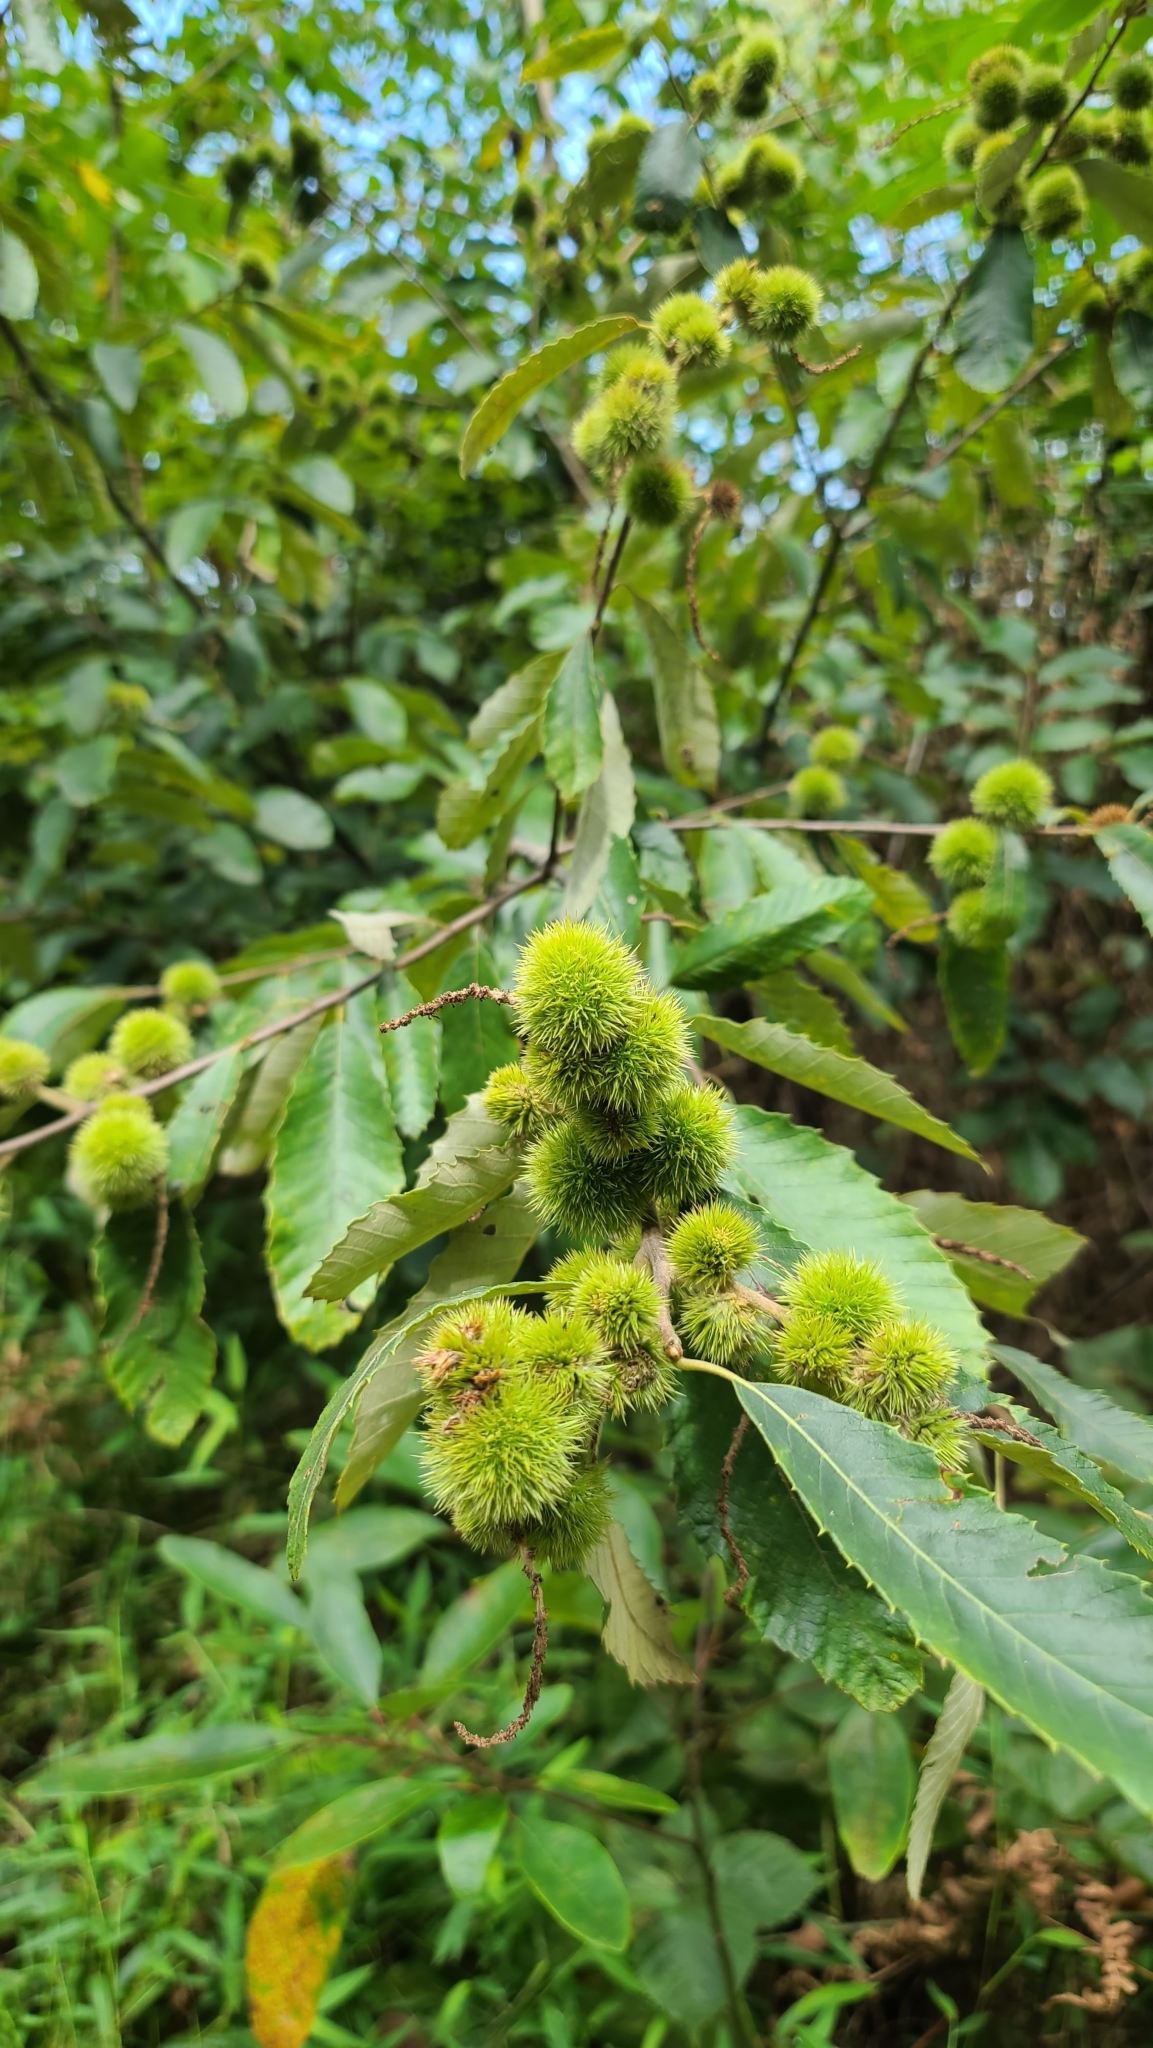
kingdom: Plantae
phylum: Tracheophyta
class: Magnoliopsida
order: Fagales
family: Fagaceae
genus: Castanea
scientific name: Castanea pumila
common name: Chinkapin
